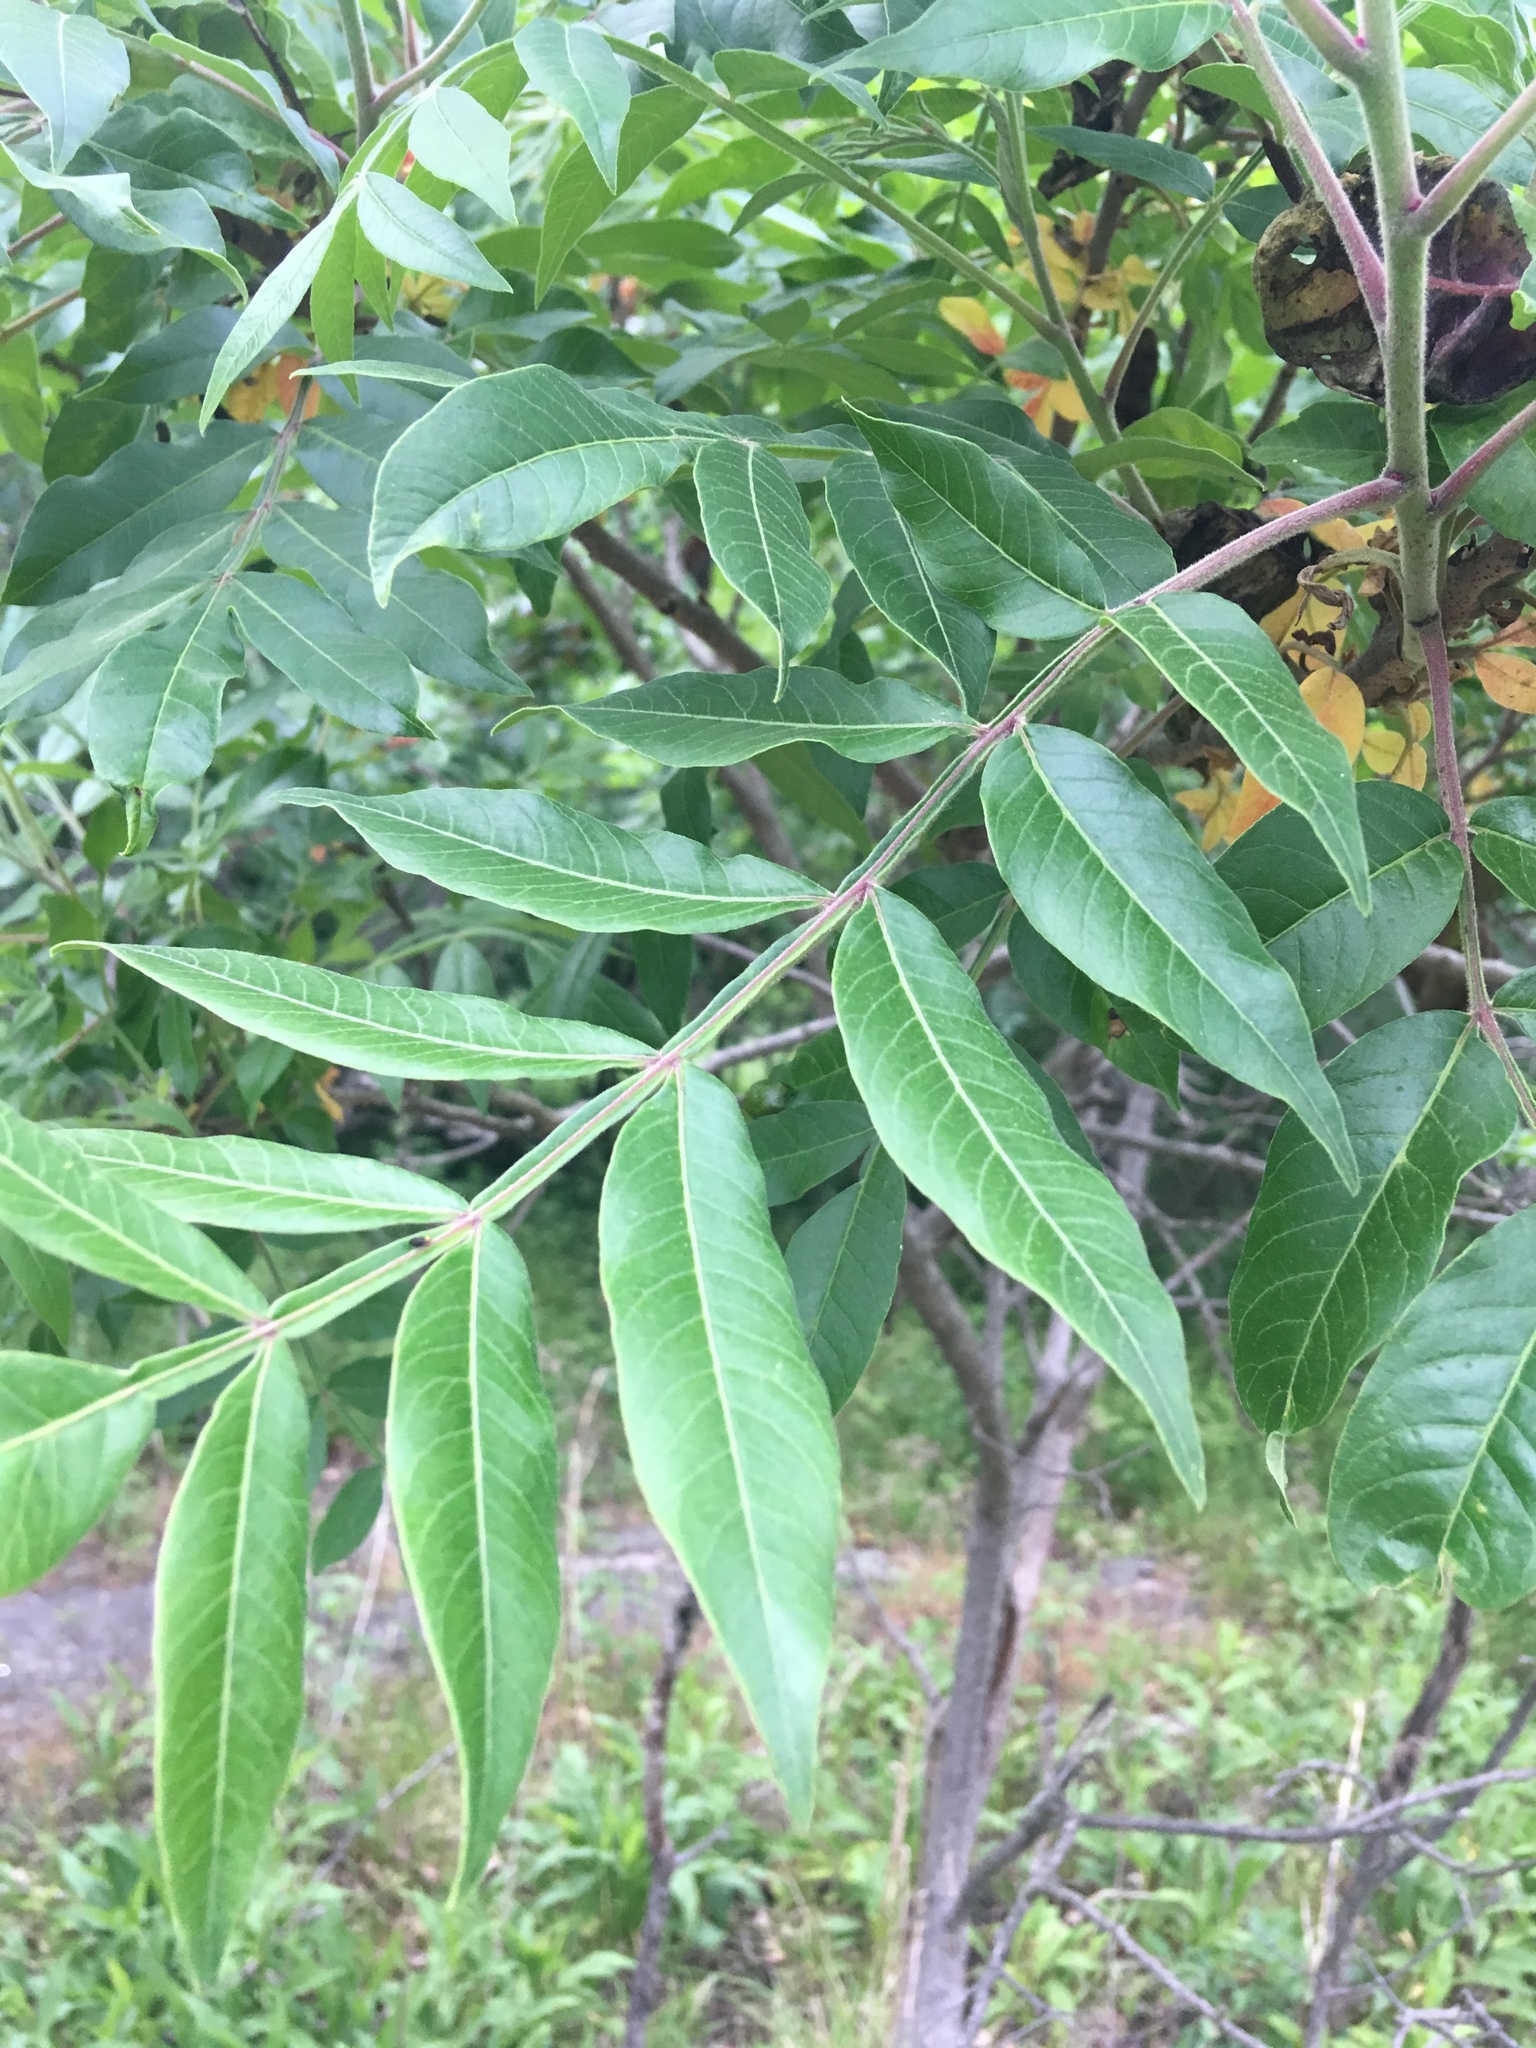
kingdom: Plantae
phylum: Tracheophyta
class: Magnoliopsida
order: Sapindales
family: Anacardiaceae
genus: Rhus
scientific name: Rhus copallina
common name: Shining sumac
